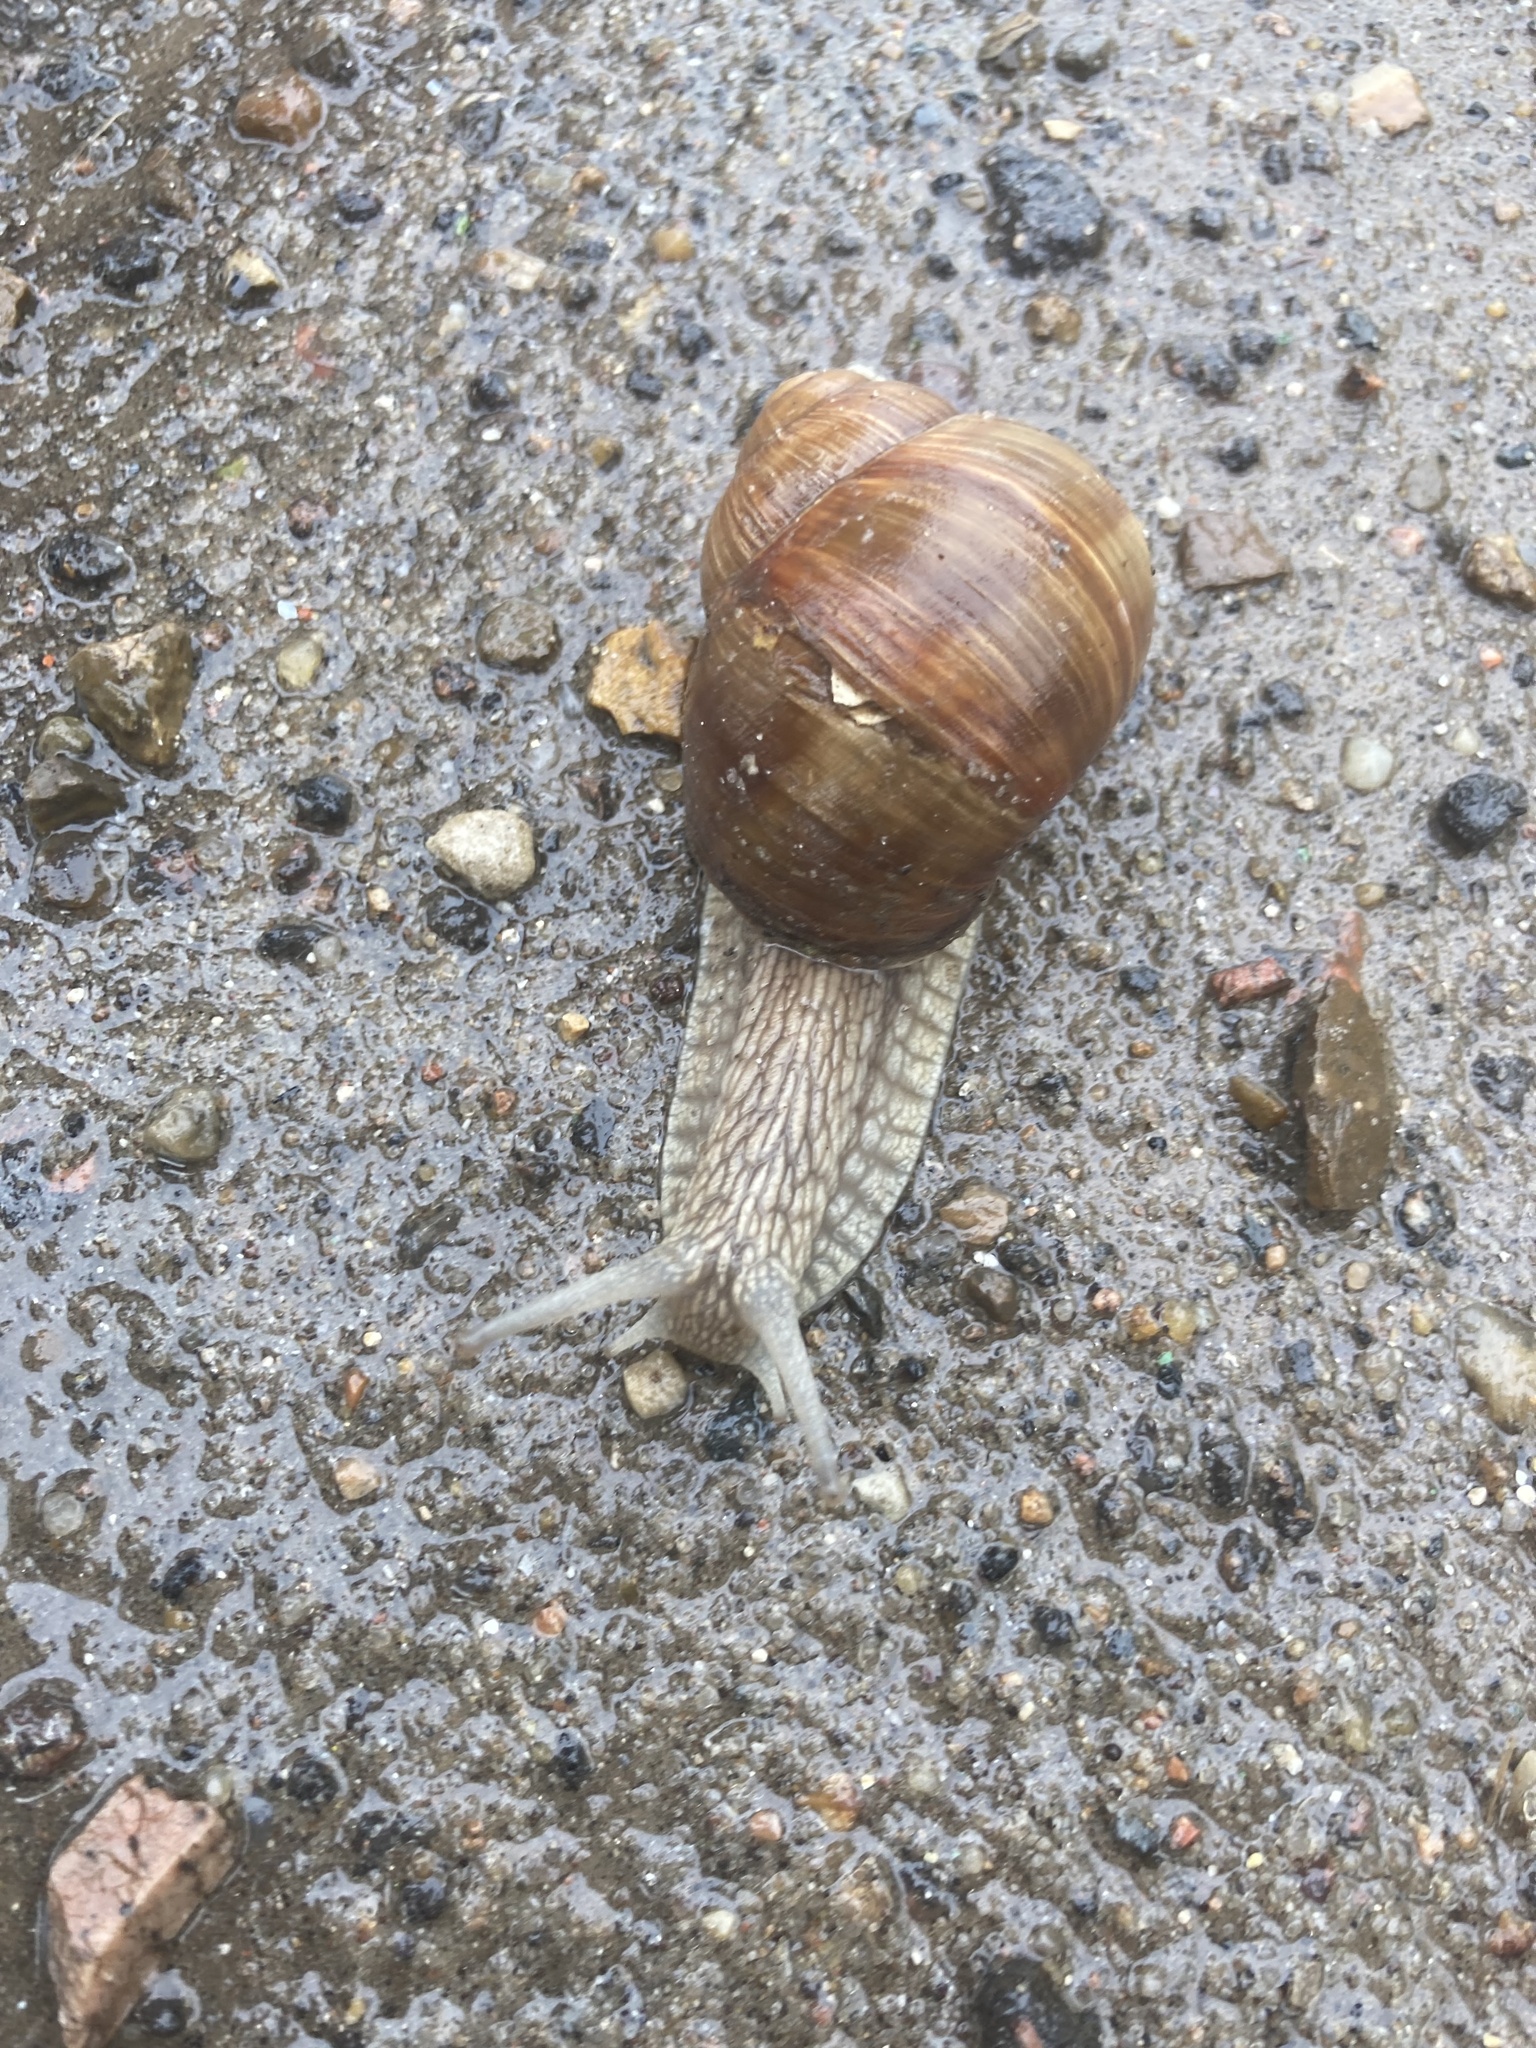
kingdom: Animalia
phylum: Mollusca
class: Gastropoda
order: Stylommatophora
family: Helicidae
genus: Helix
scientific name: Helix pomatia
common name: Roman snail
